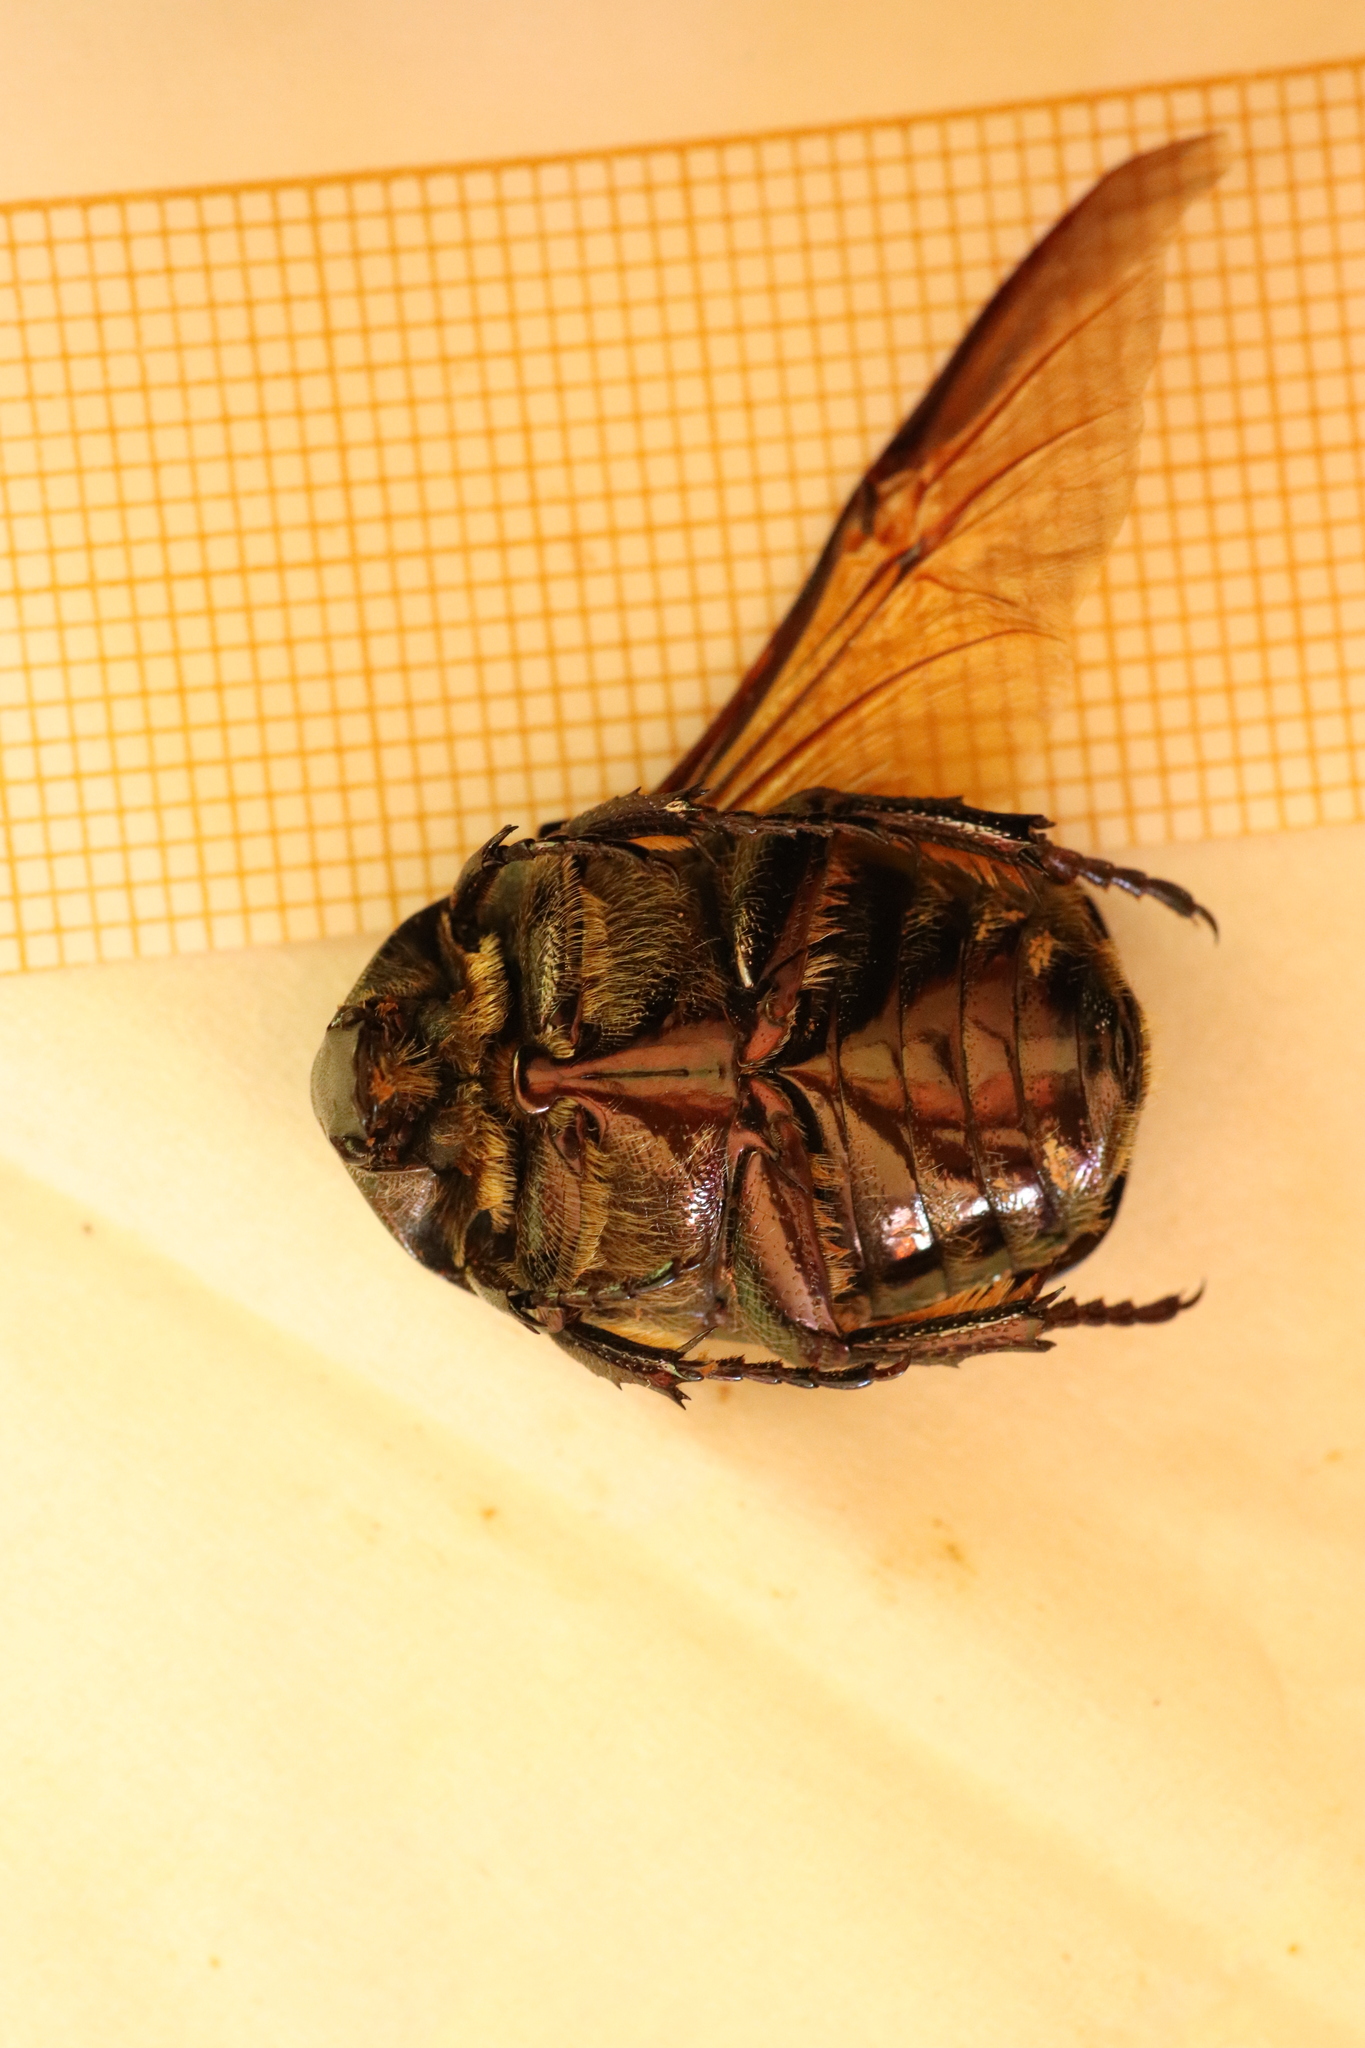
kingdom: Animalia
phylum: Arthropoda
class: Insecta
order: Coleoptera
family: Scarabaeidae
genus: Protaetia
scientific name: Protaetia cuprea
